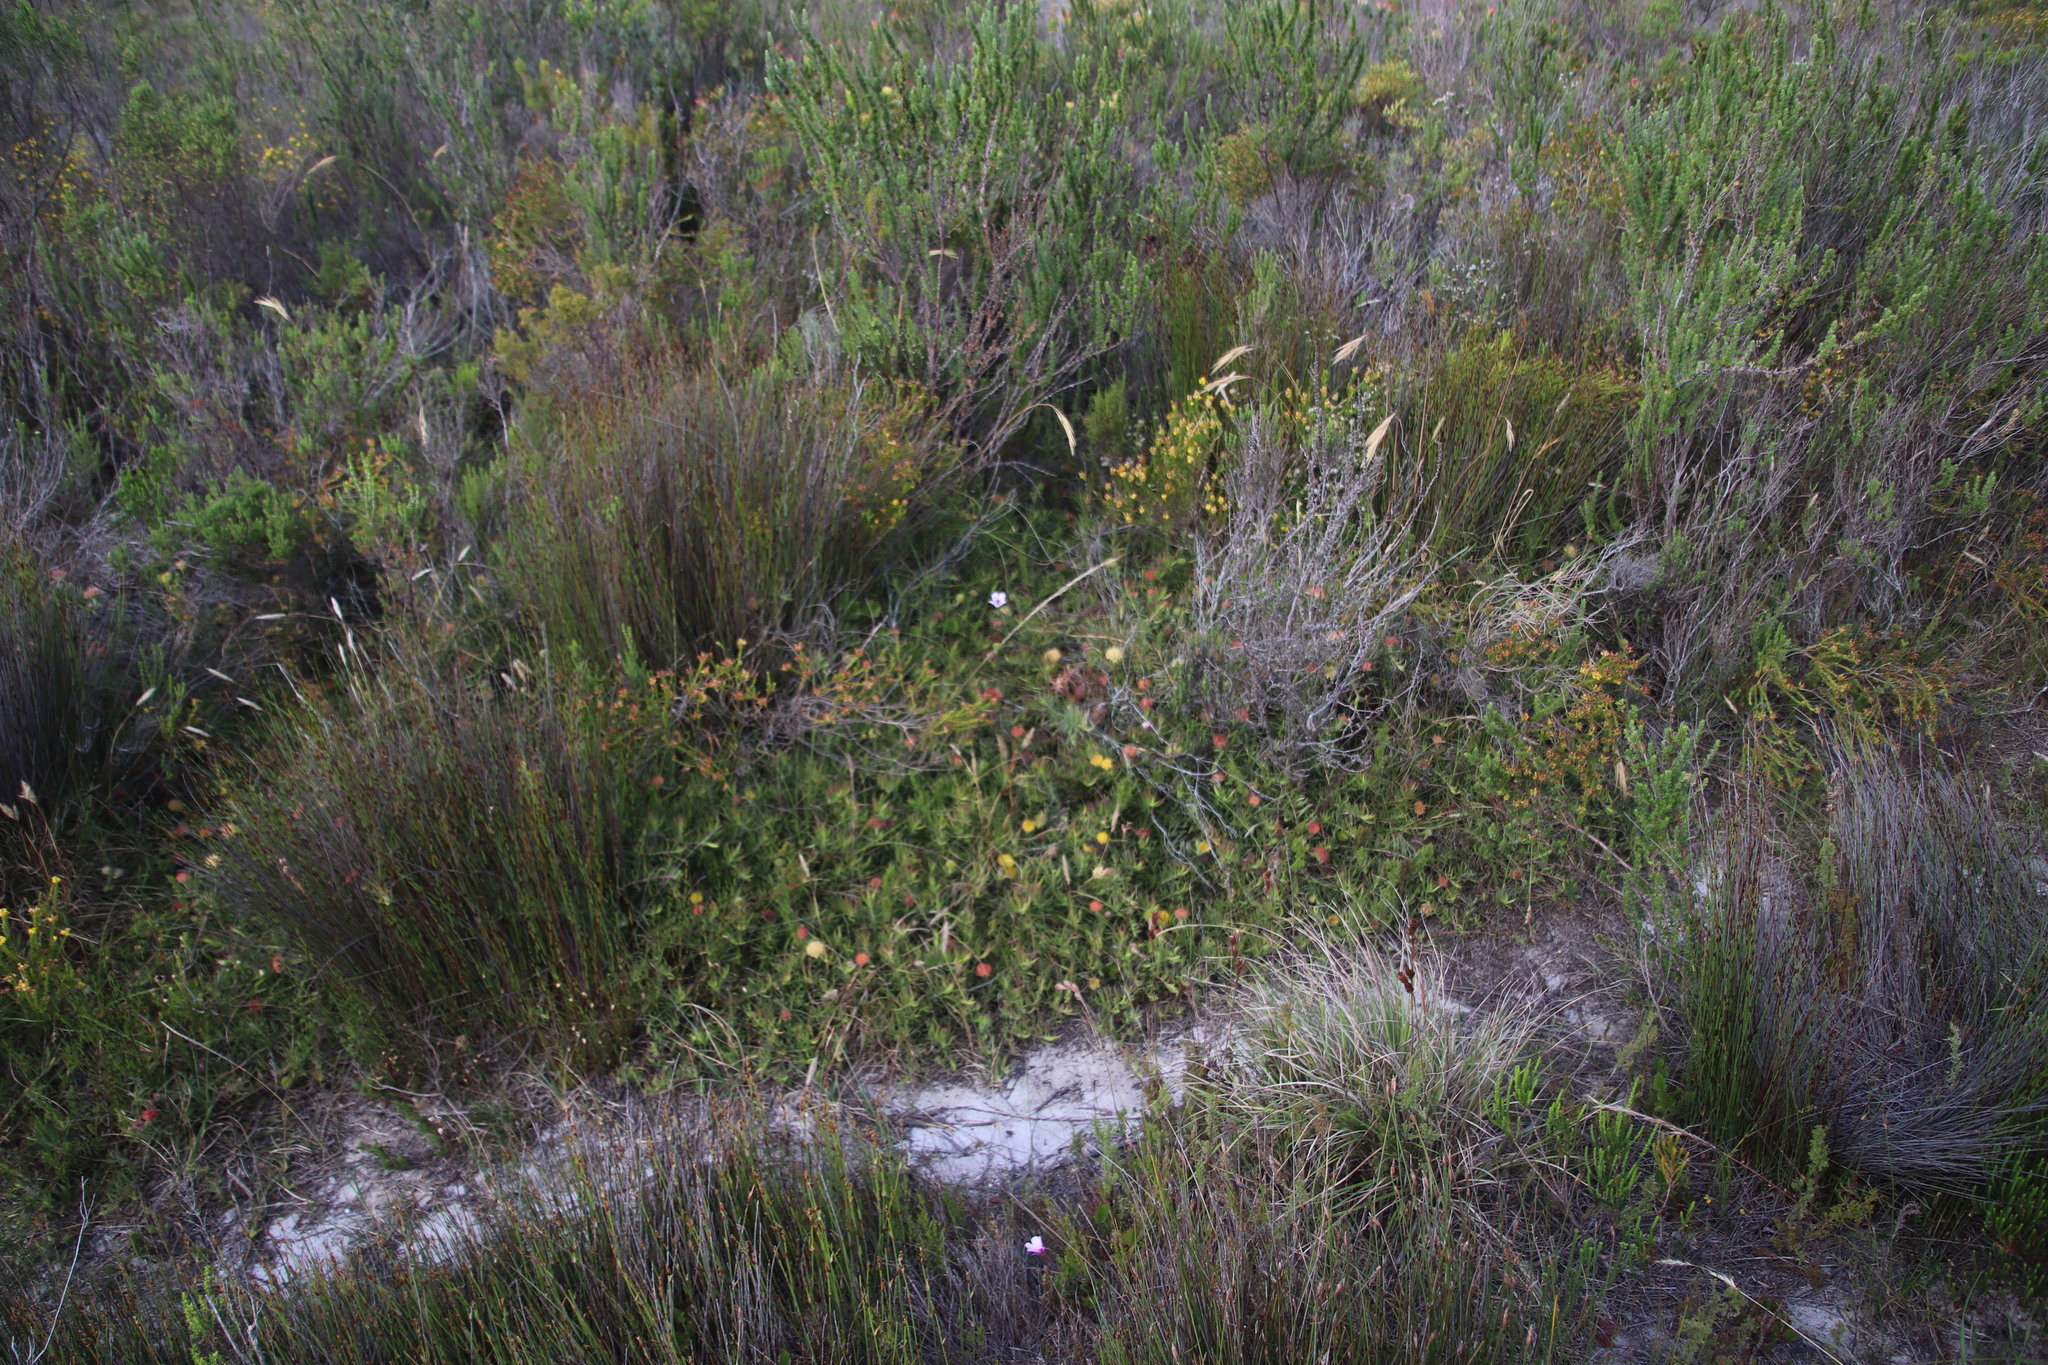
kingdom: Plantae
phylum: Tracheophyta
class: Magnoliopsida
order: Proteales
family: Proteaceae
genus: Leucospermum
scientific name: Leucospermum pedunculatum
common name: White-trailing pincushion
